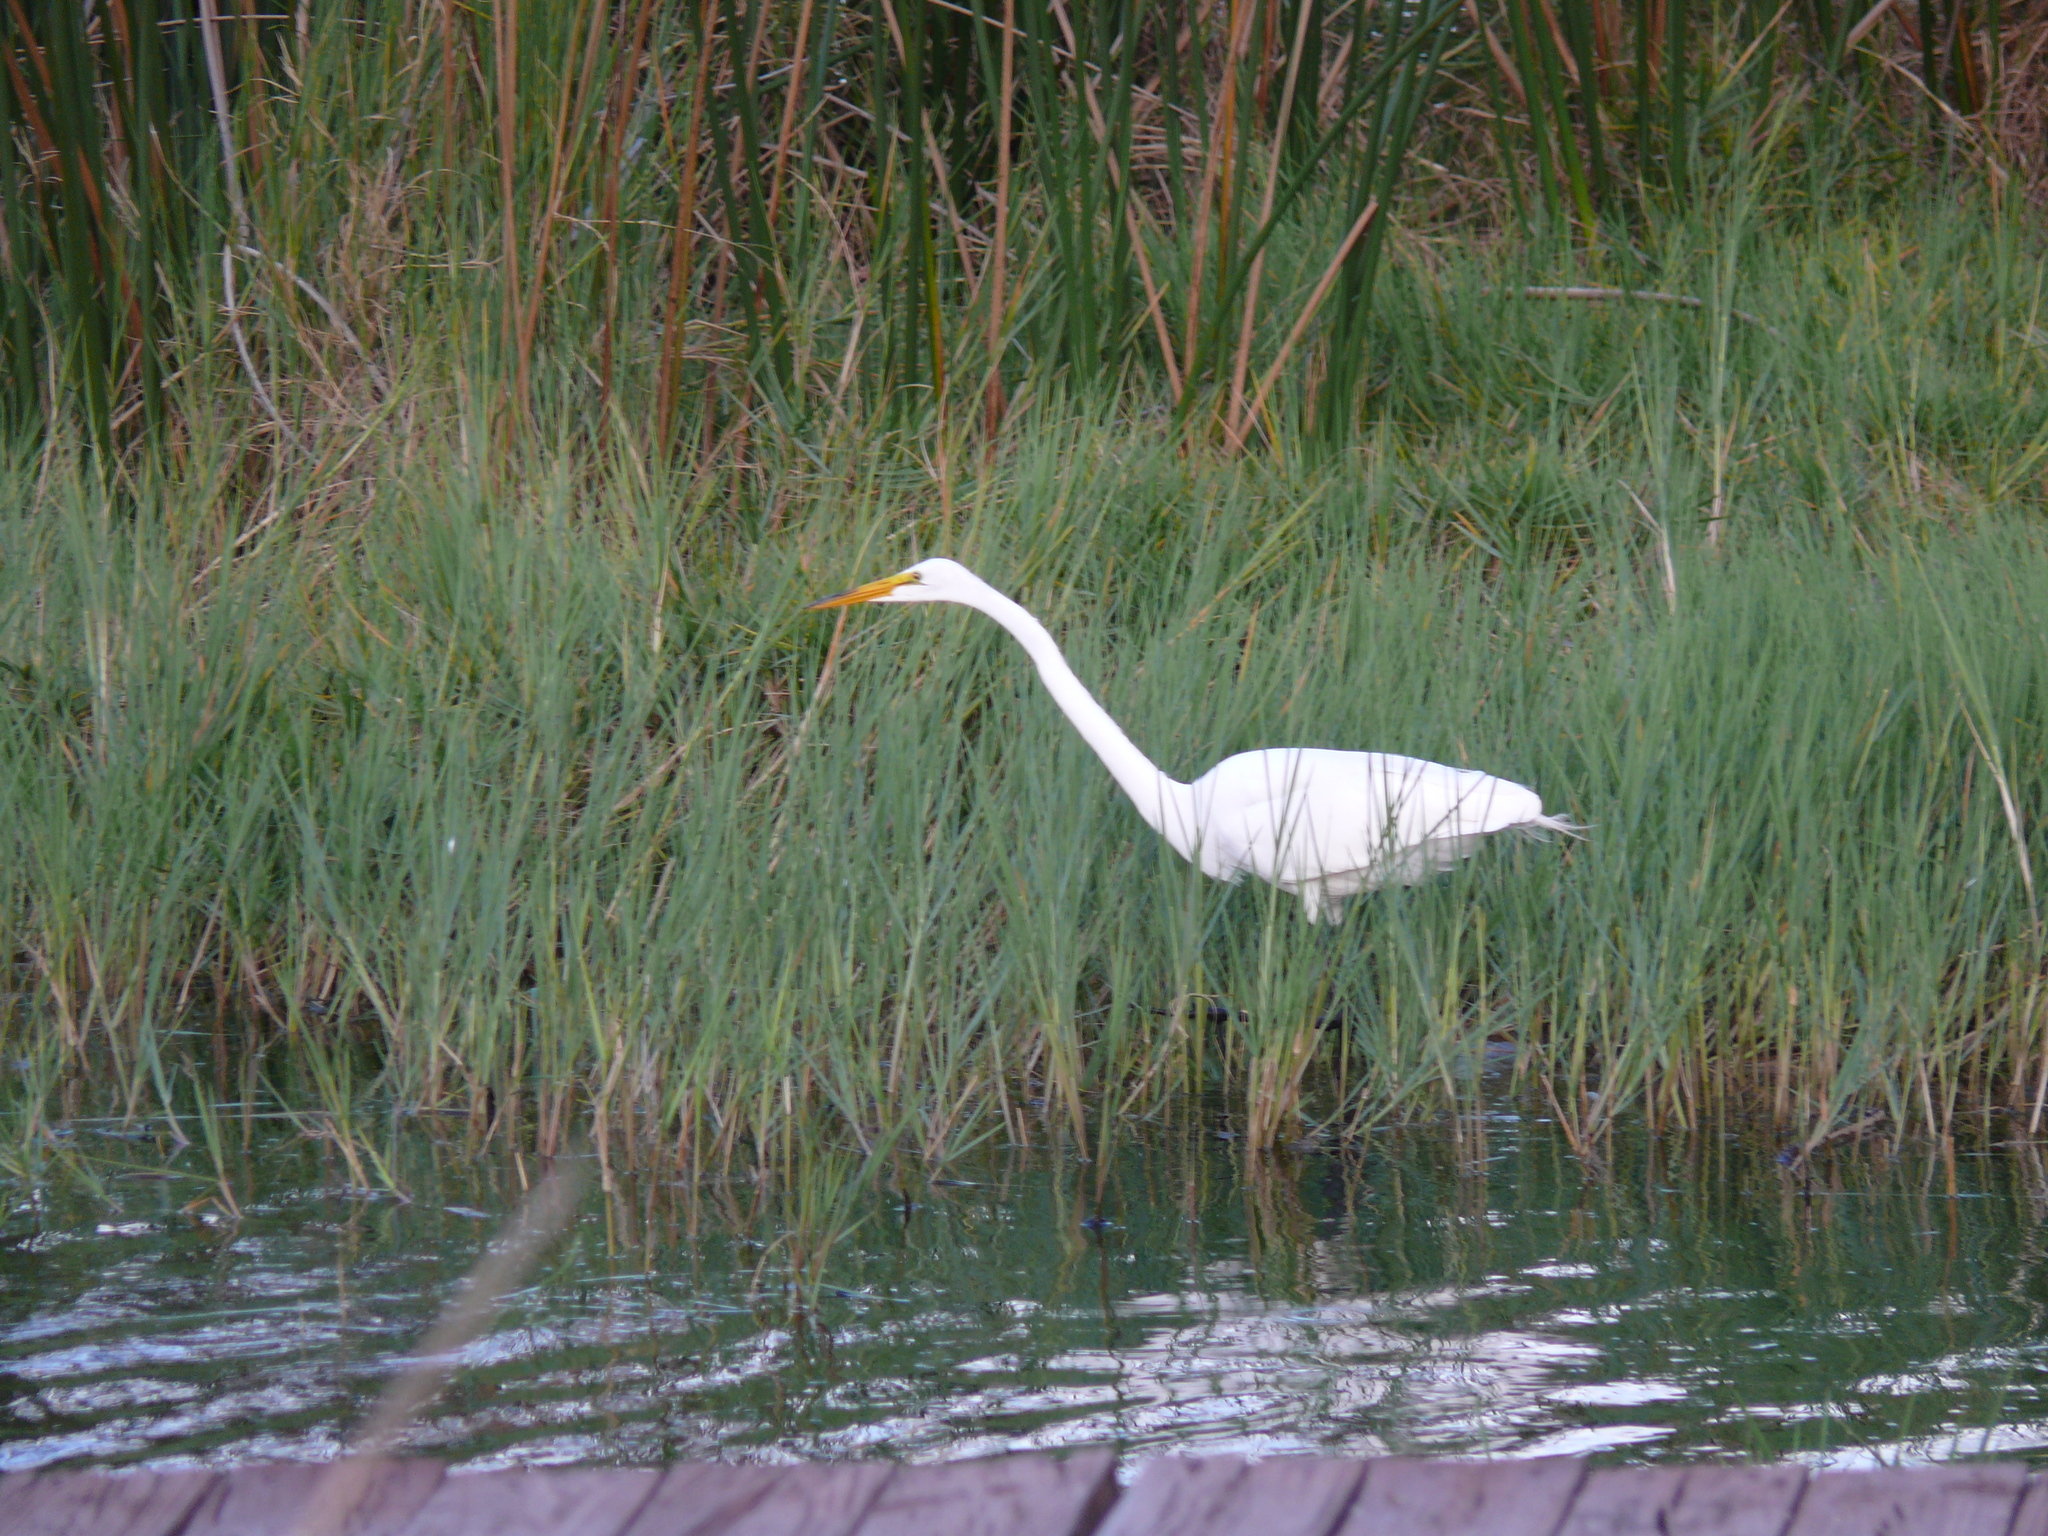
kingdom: Animalia
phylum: Chordata
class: Aves
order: Pelecaniformes
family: Ardeidae
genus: Ardea
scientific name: Ardea alba
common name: Great egret
